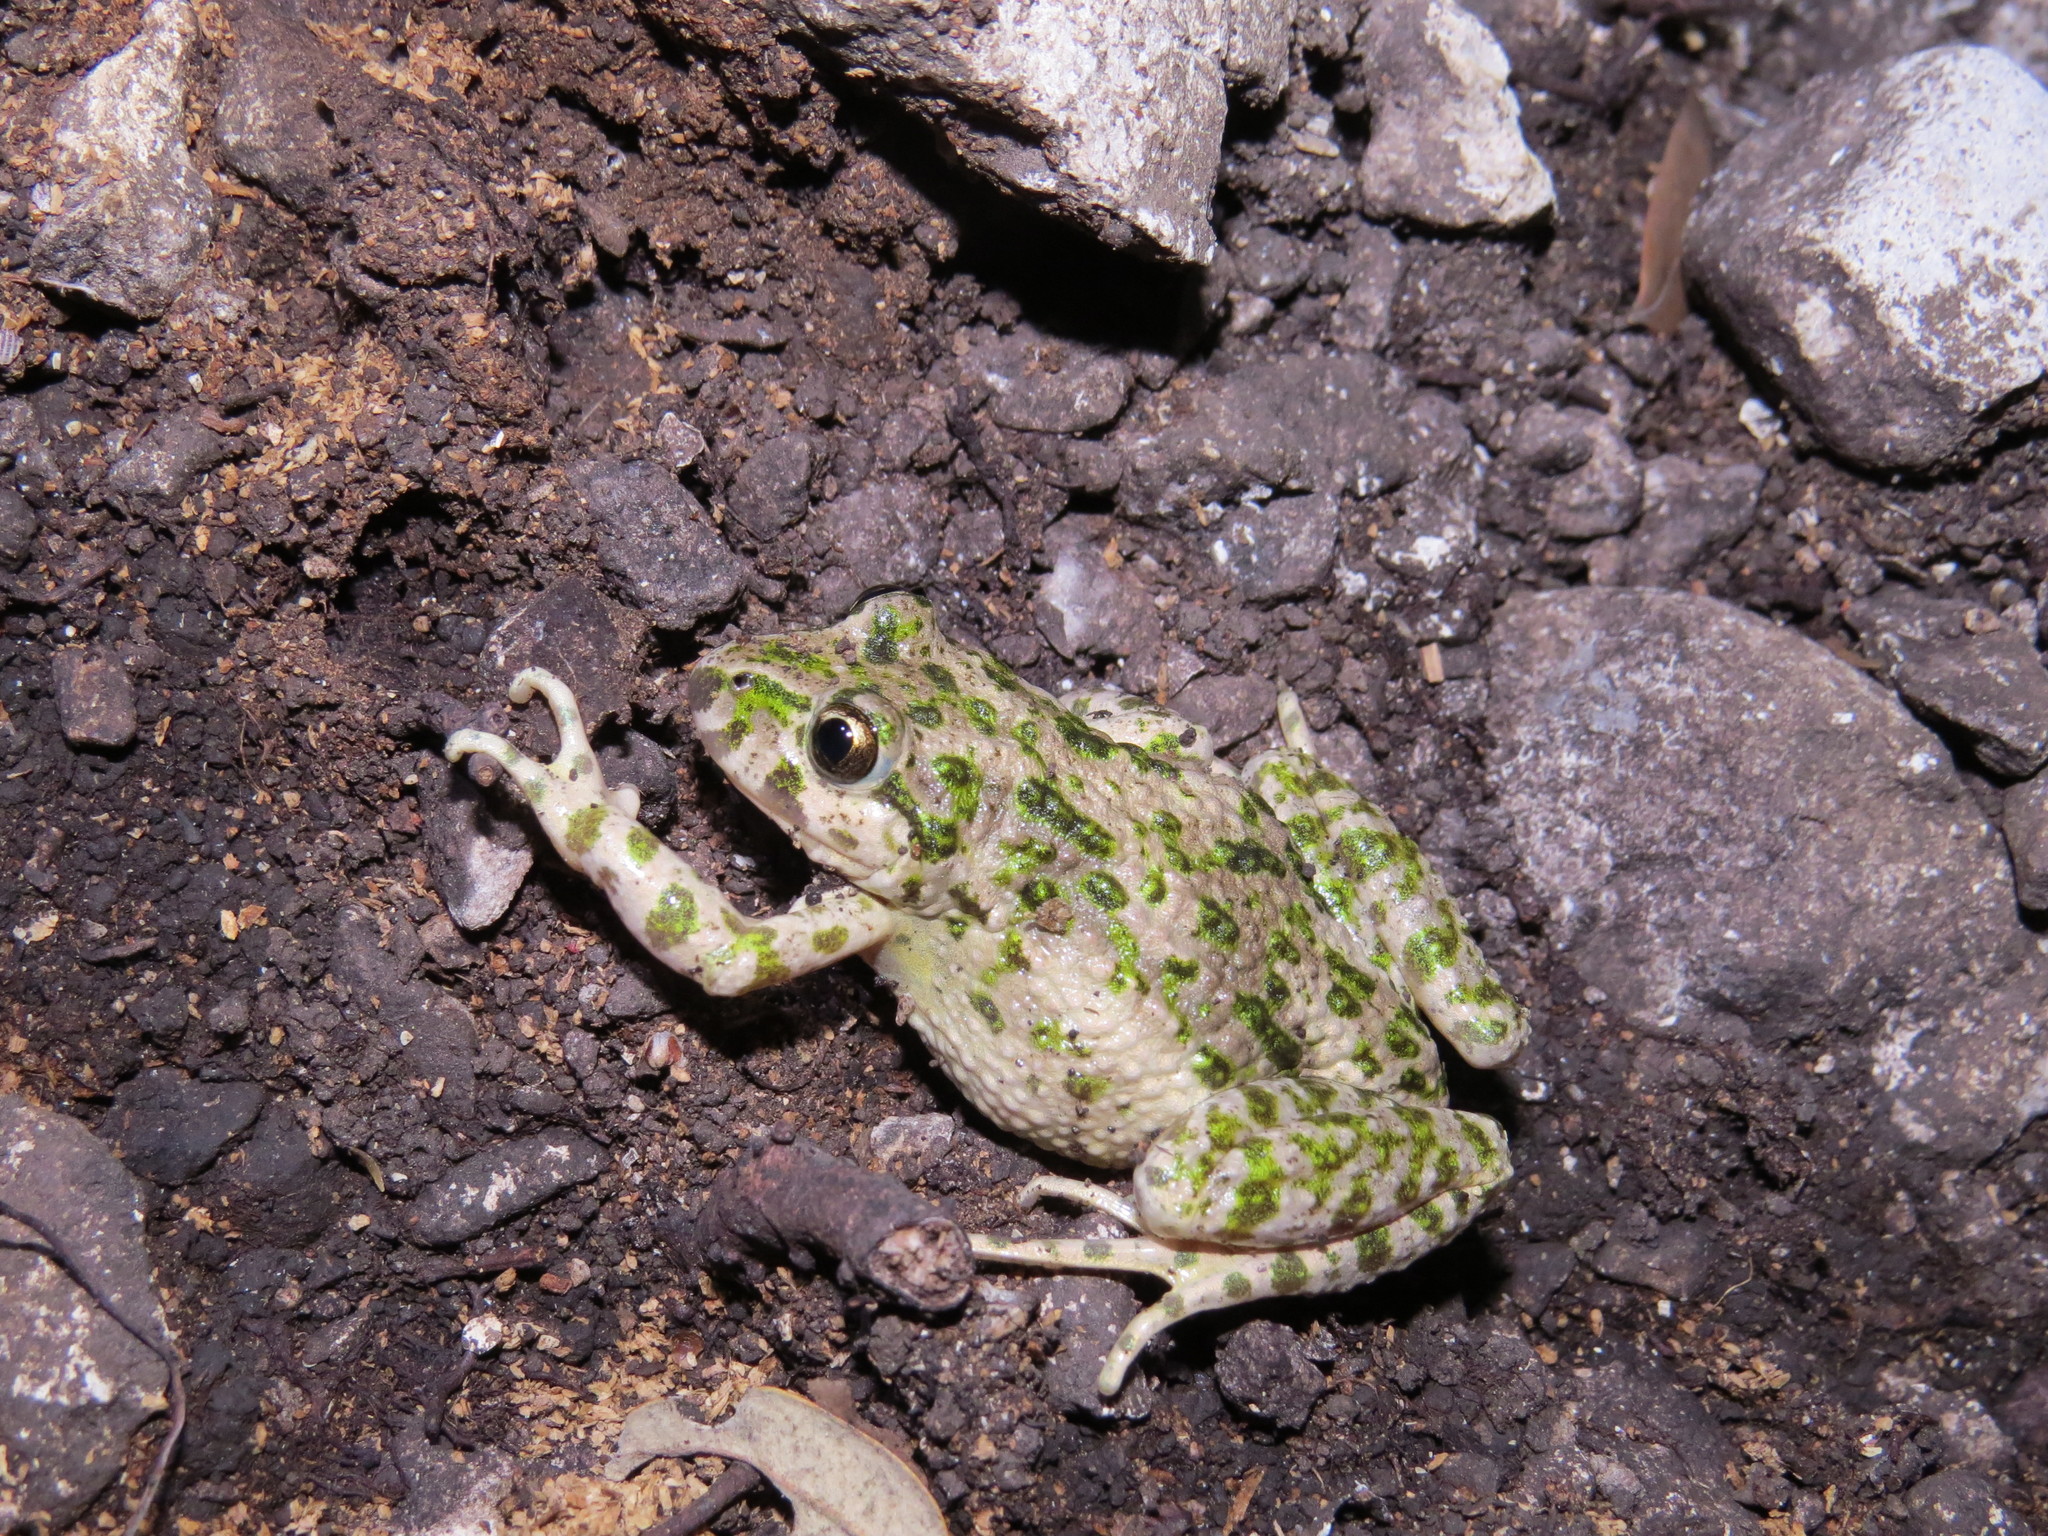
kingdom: Animalia
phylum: Chordata
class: Amphibia
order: Anura
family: Pelodytidae
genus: Pelodytes
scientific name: Pelodytes punctatus
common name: Parsley frog
